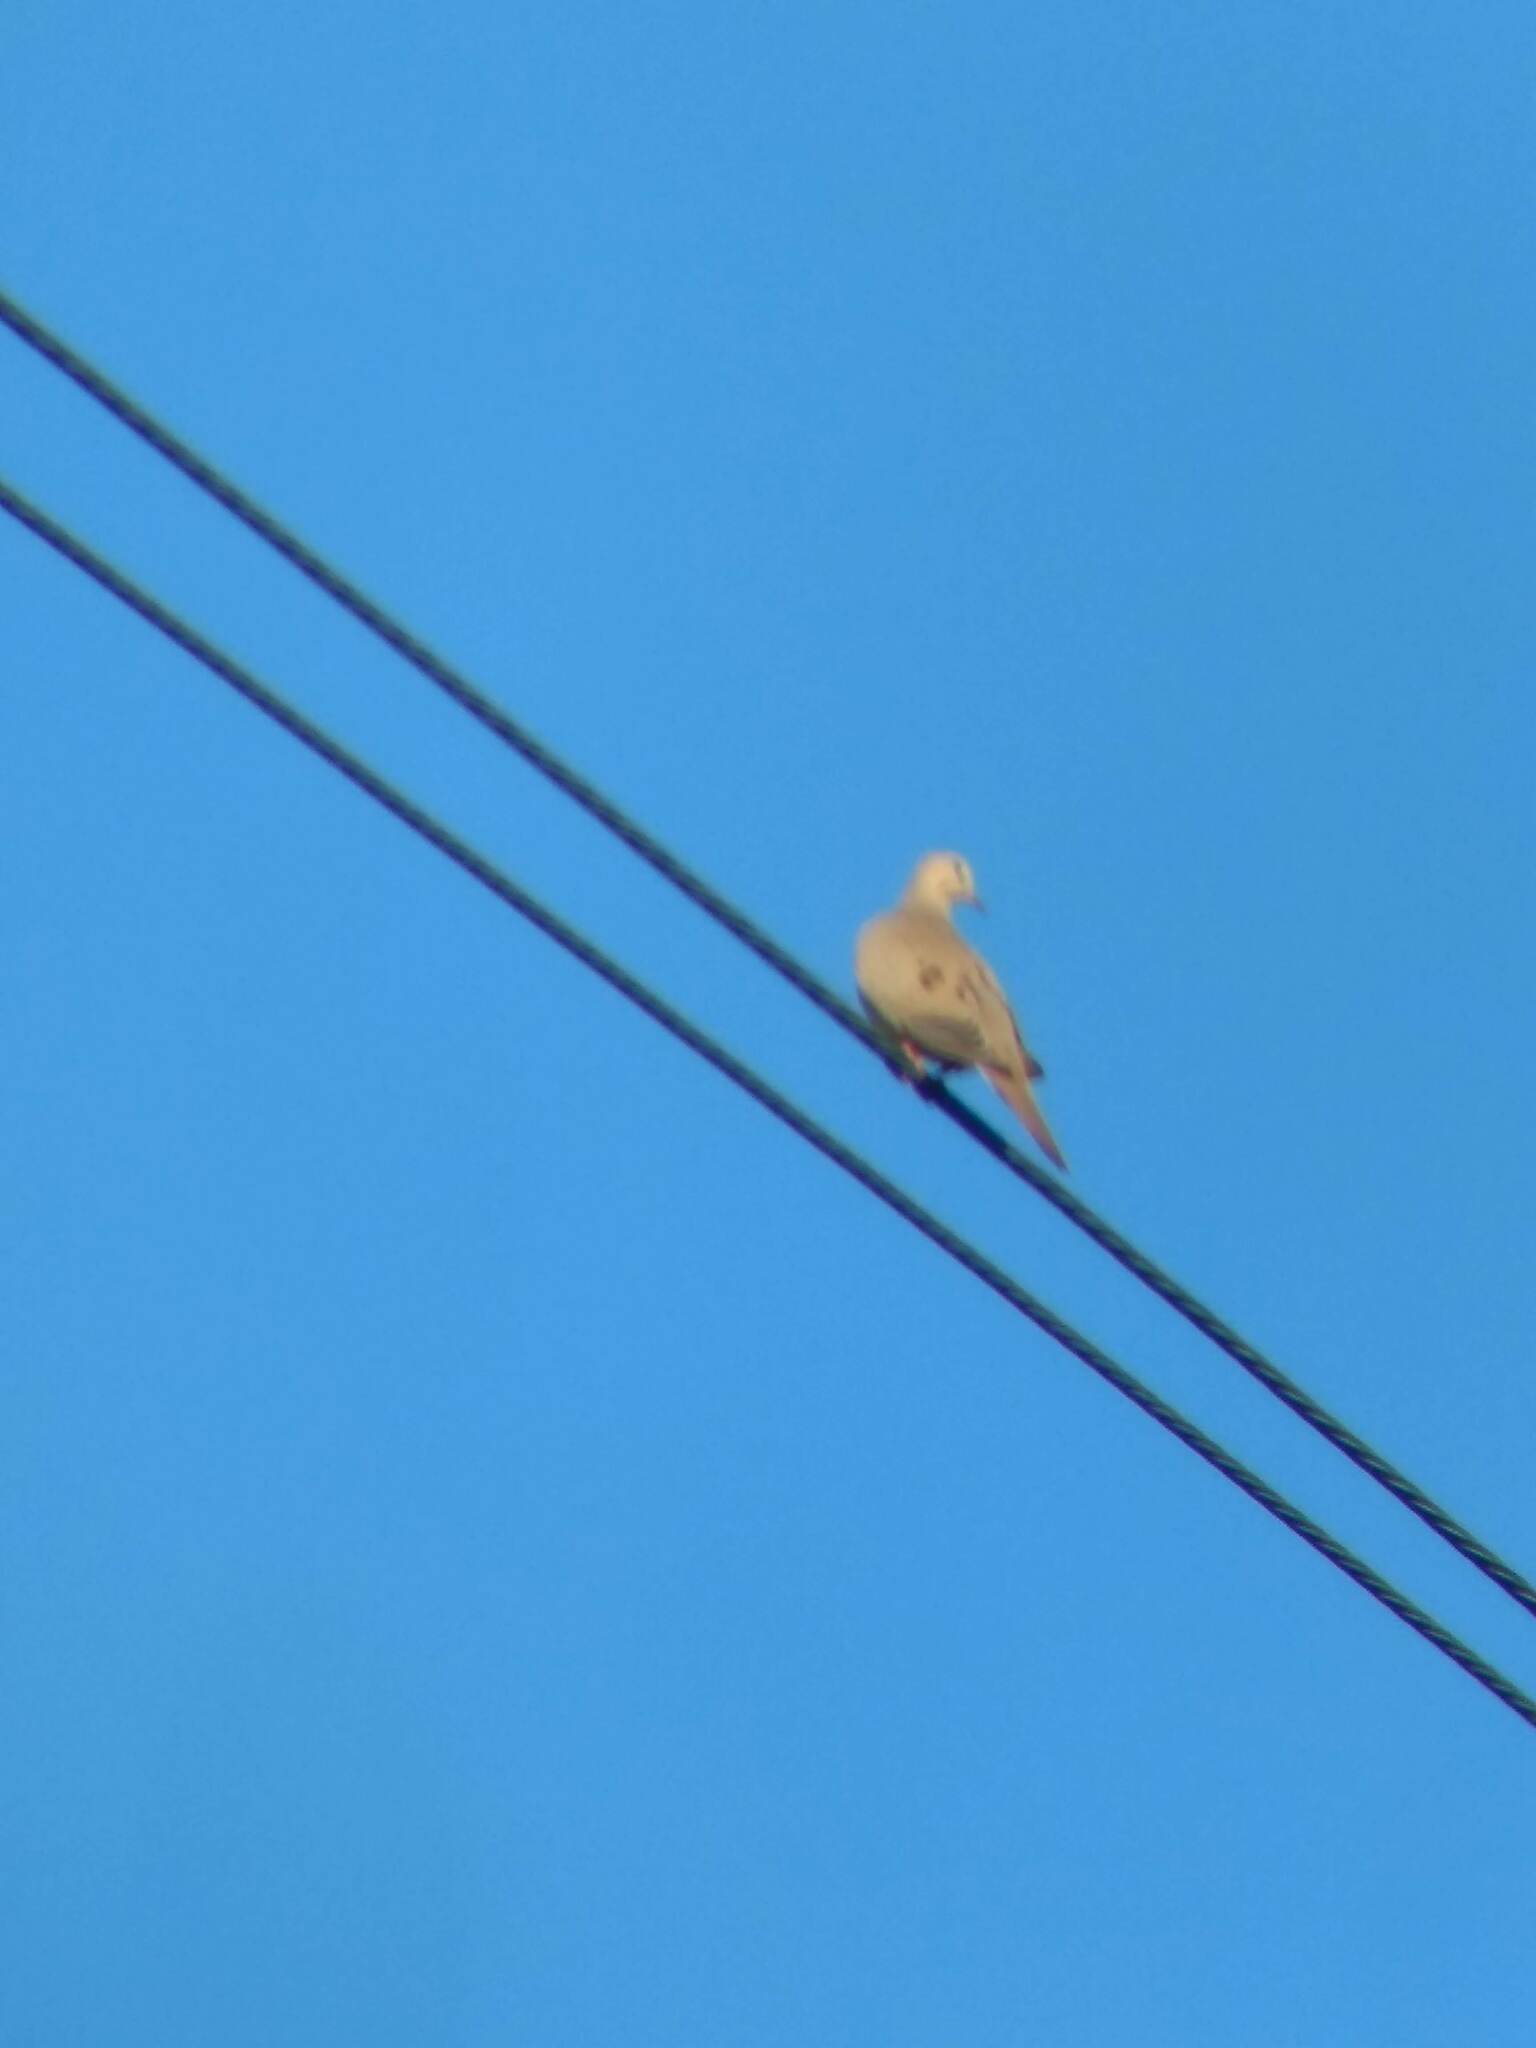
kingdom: Animalia
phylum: Chordata
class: Aves
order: Columbiformes
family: Columbidae
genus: Zenaida
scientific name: Zenaida macroura
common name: Mourning dove
